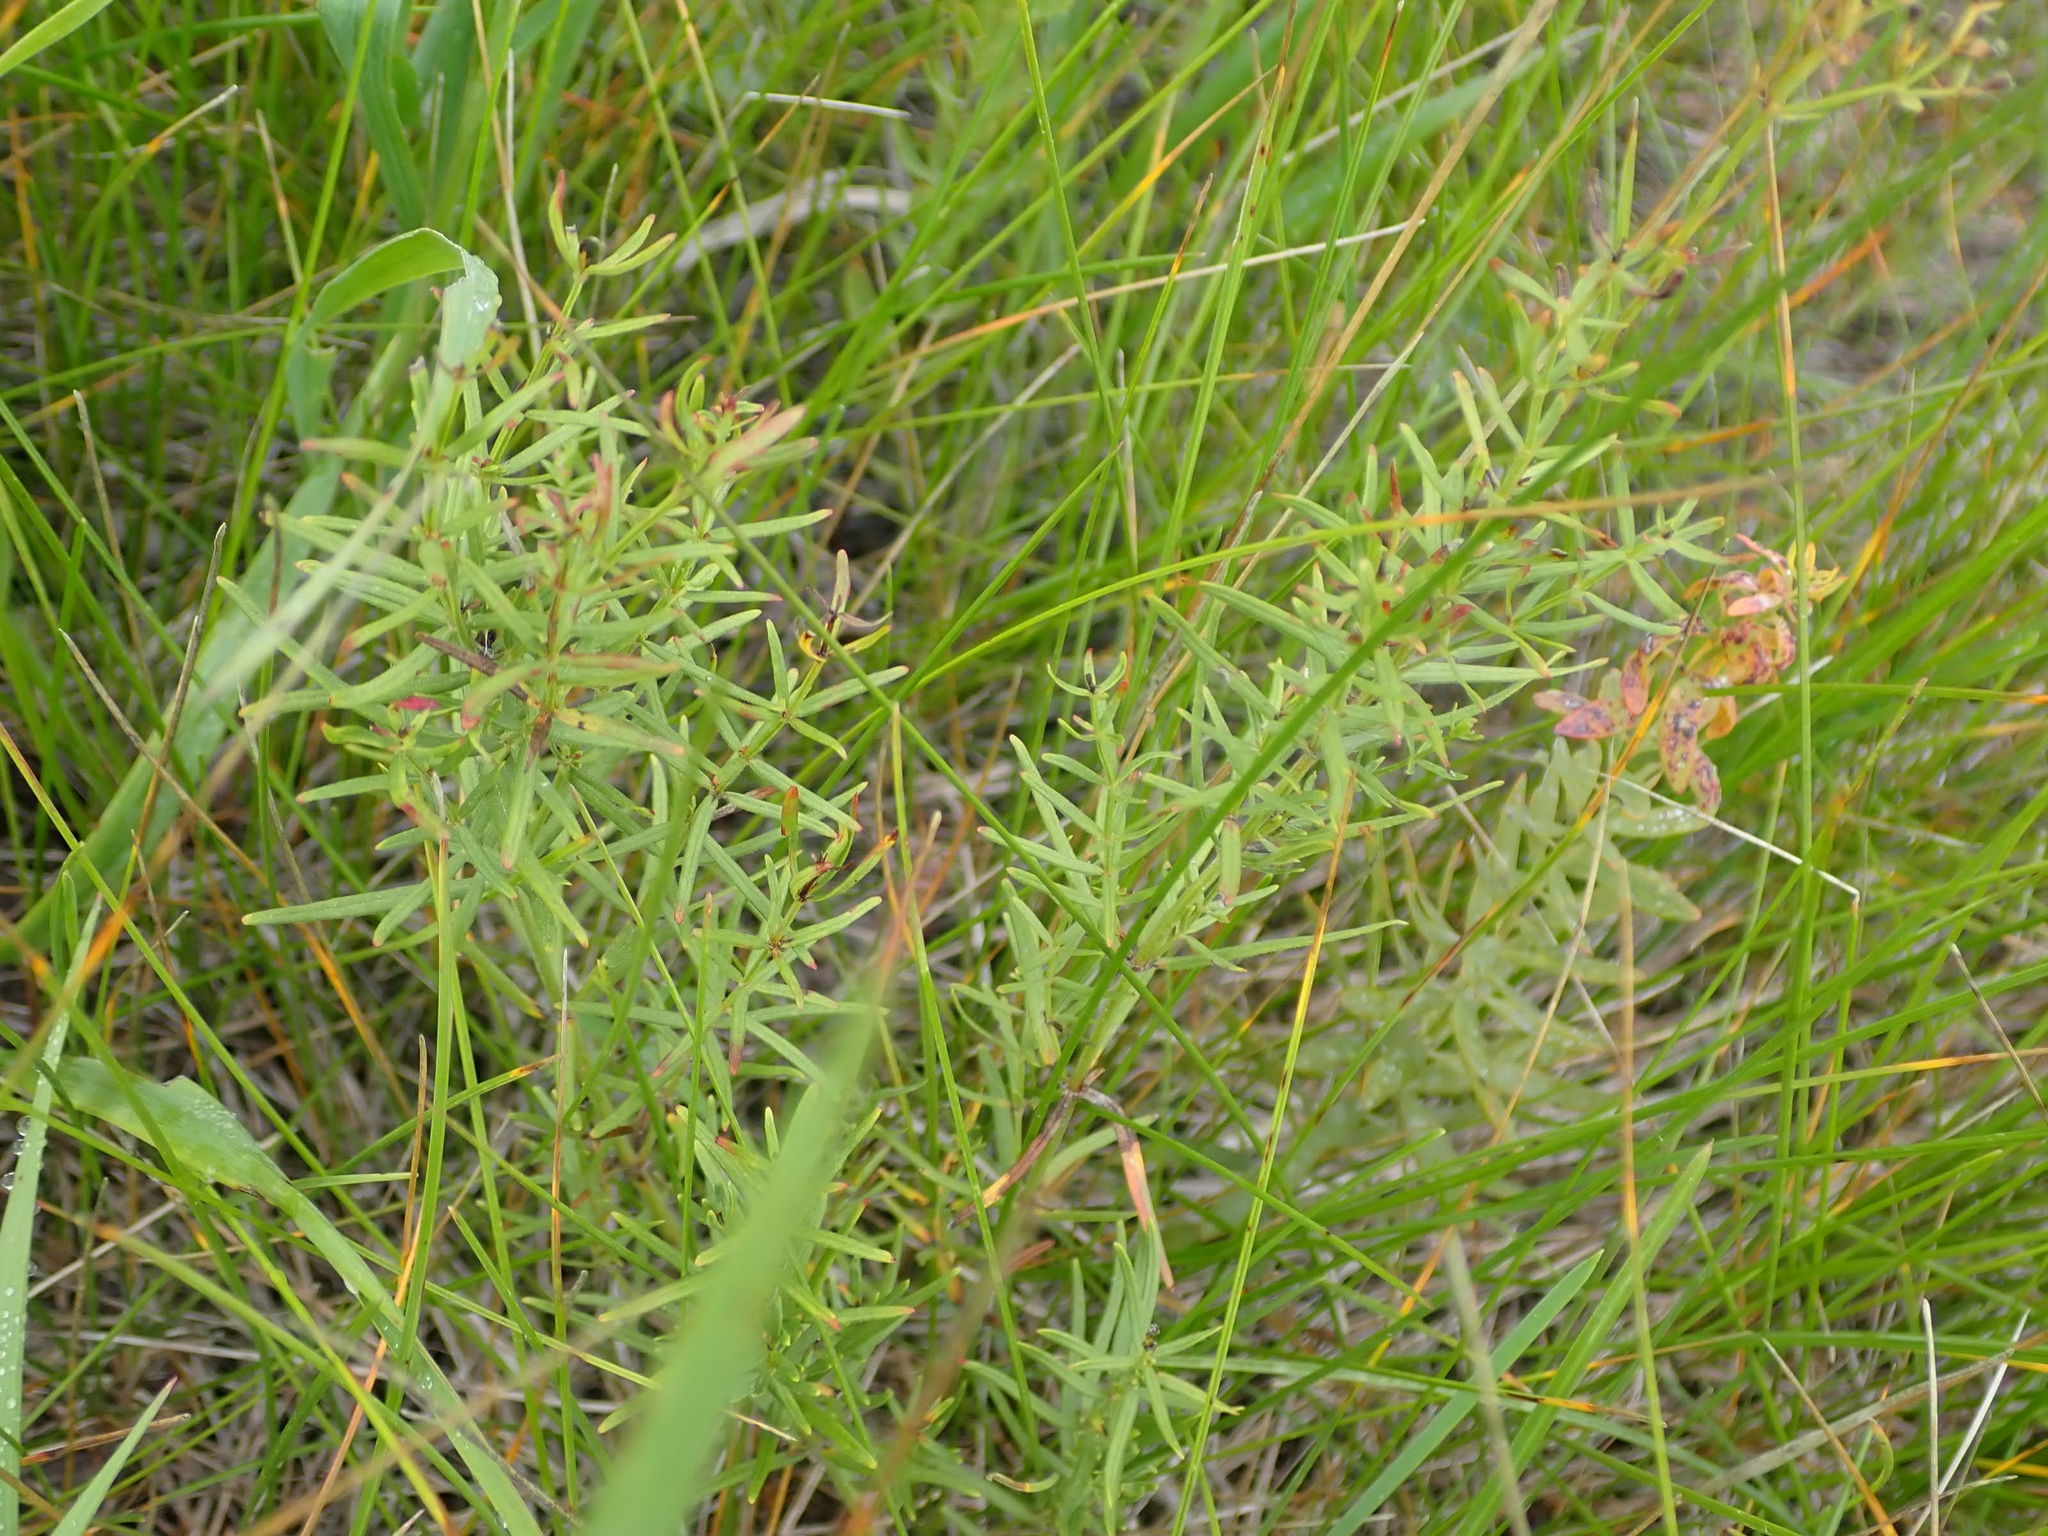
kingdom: Plantae
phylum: Tracheophyta
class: Magnoliopsida
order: Gentianales
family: Rubiaceae
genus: Galium
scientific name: Galium boreale
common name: Northern bedstraw
